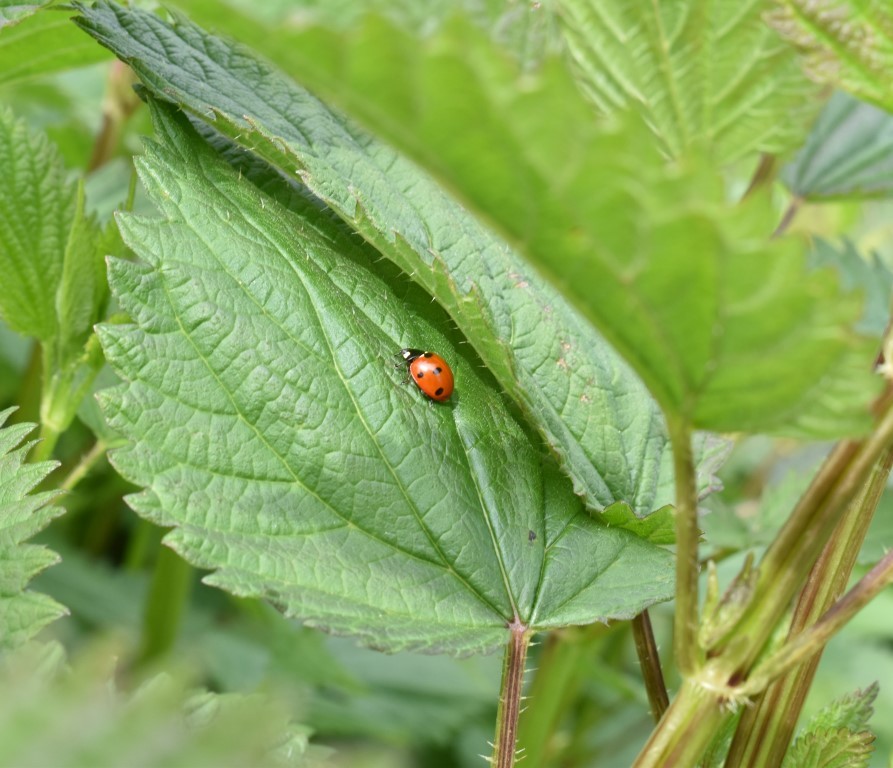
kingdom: Animalia
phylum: Arthropoda
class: Insecta
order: Coleoptera
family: Coccinellidae
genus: Coccinella
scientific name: Coccinella septempunctata
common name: Sevenspotted lady beetle
